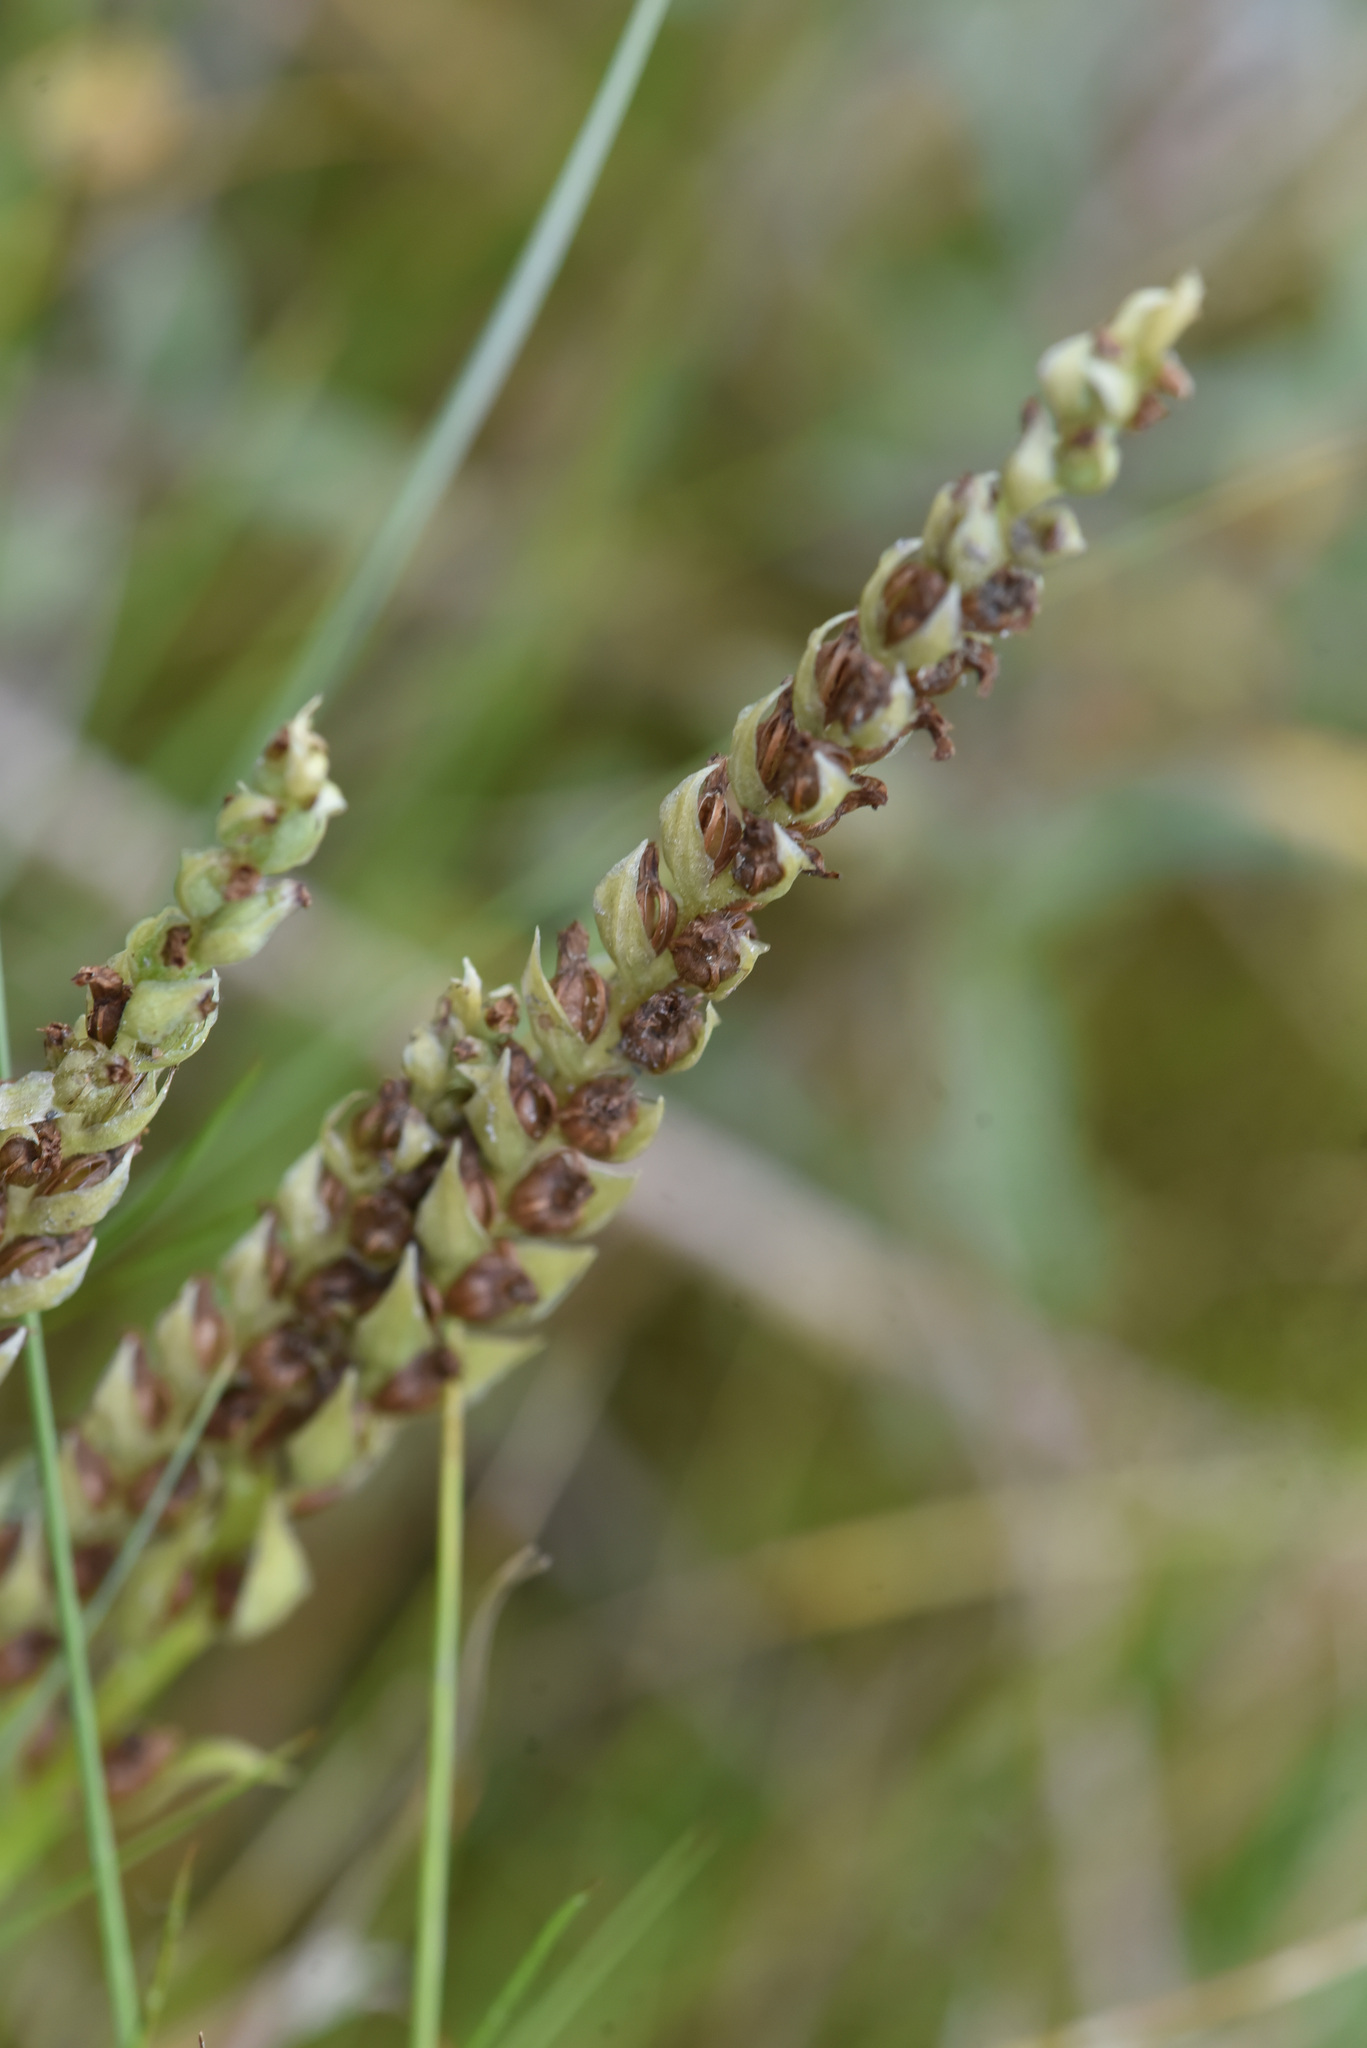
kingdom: Plantae
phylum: Tracheophyta
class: Liliopsida
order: Asparagales
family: Orchidaceae
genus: Spiranthes
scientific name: Spiranthes romanzoffiana
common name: Irish lady's-tresses
